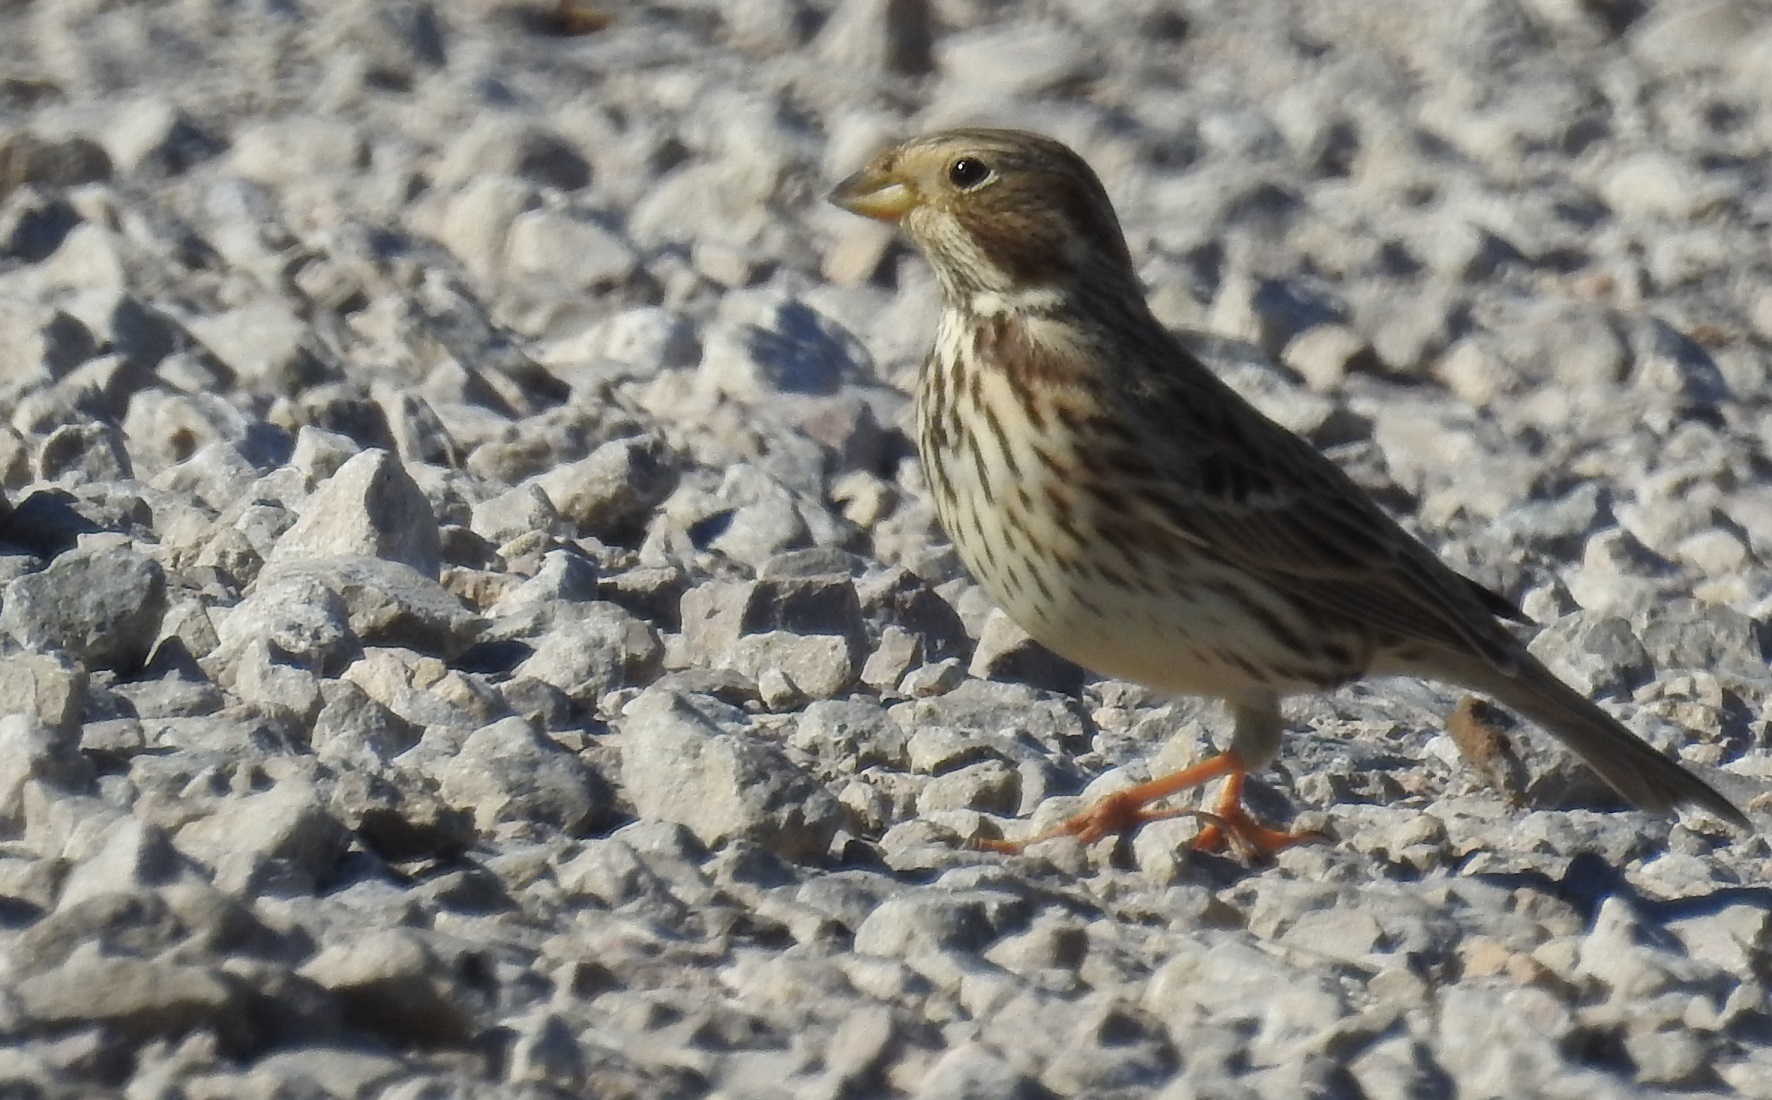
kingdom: Animalia
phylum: Chordata
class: Aves
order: Passeriformes
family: Emberizidae
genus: Emberiza
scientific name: Emberiza calandra
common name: Corn bunting
